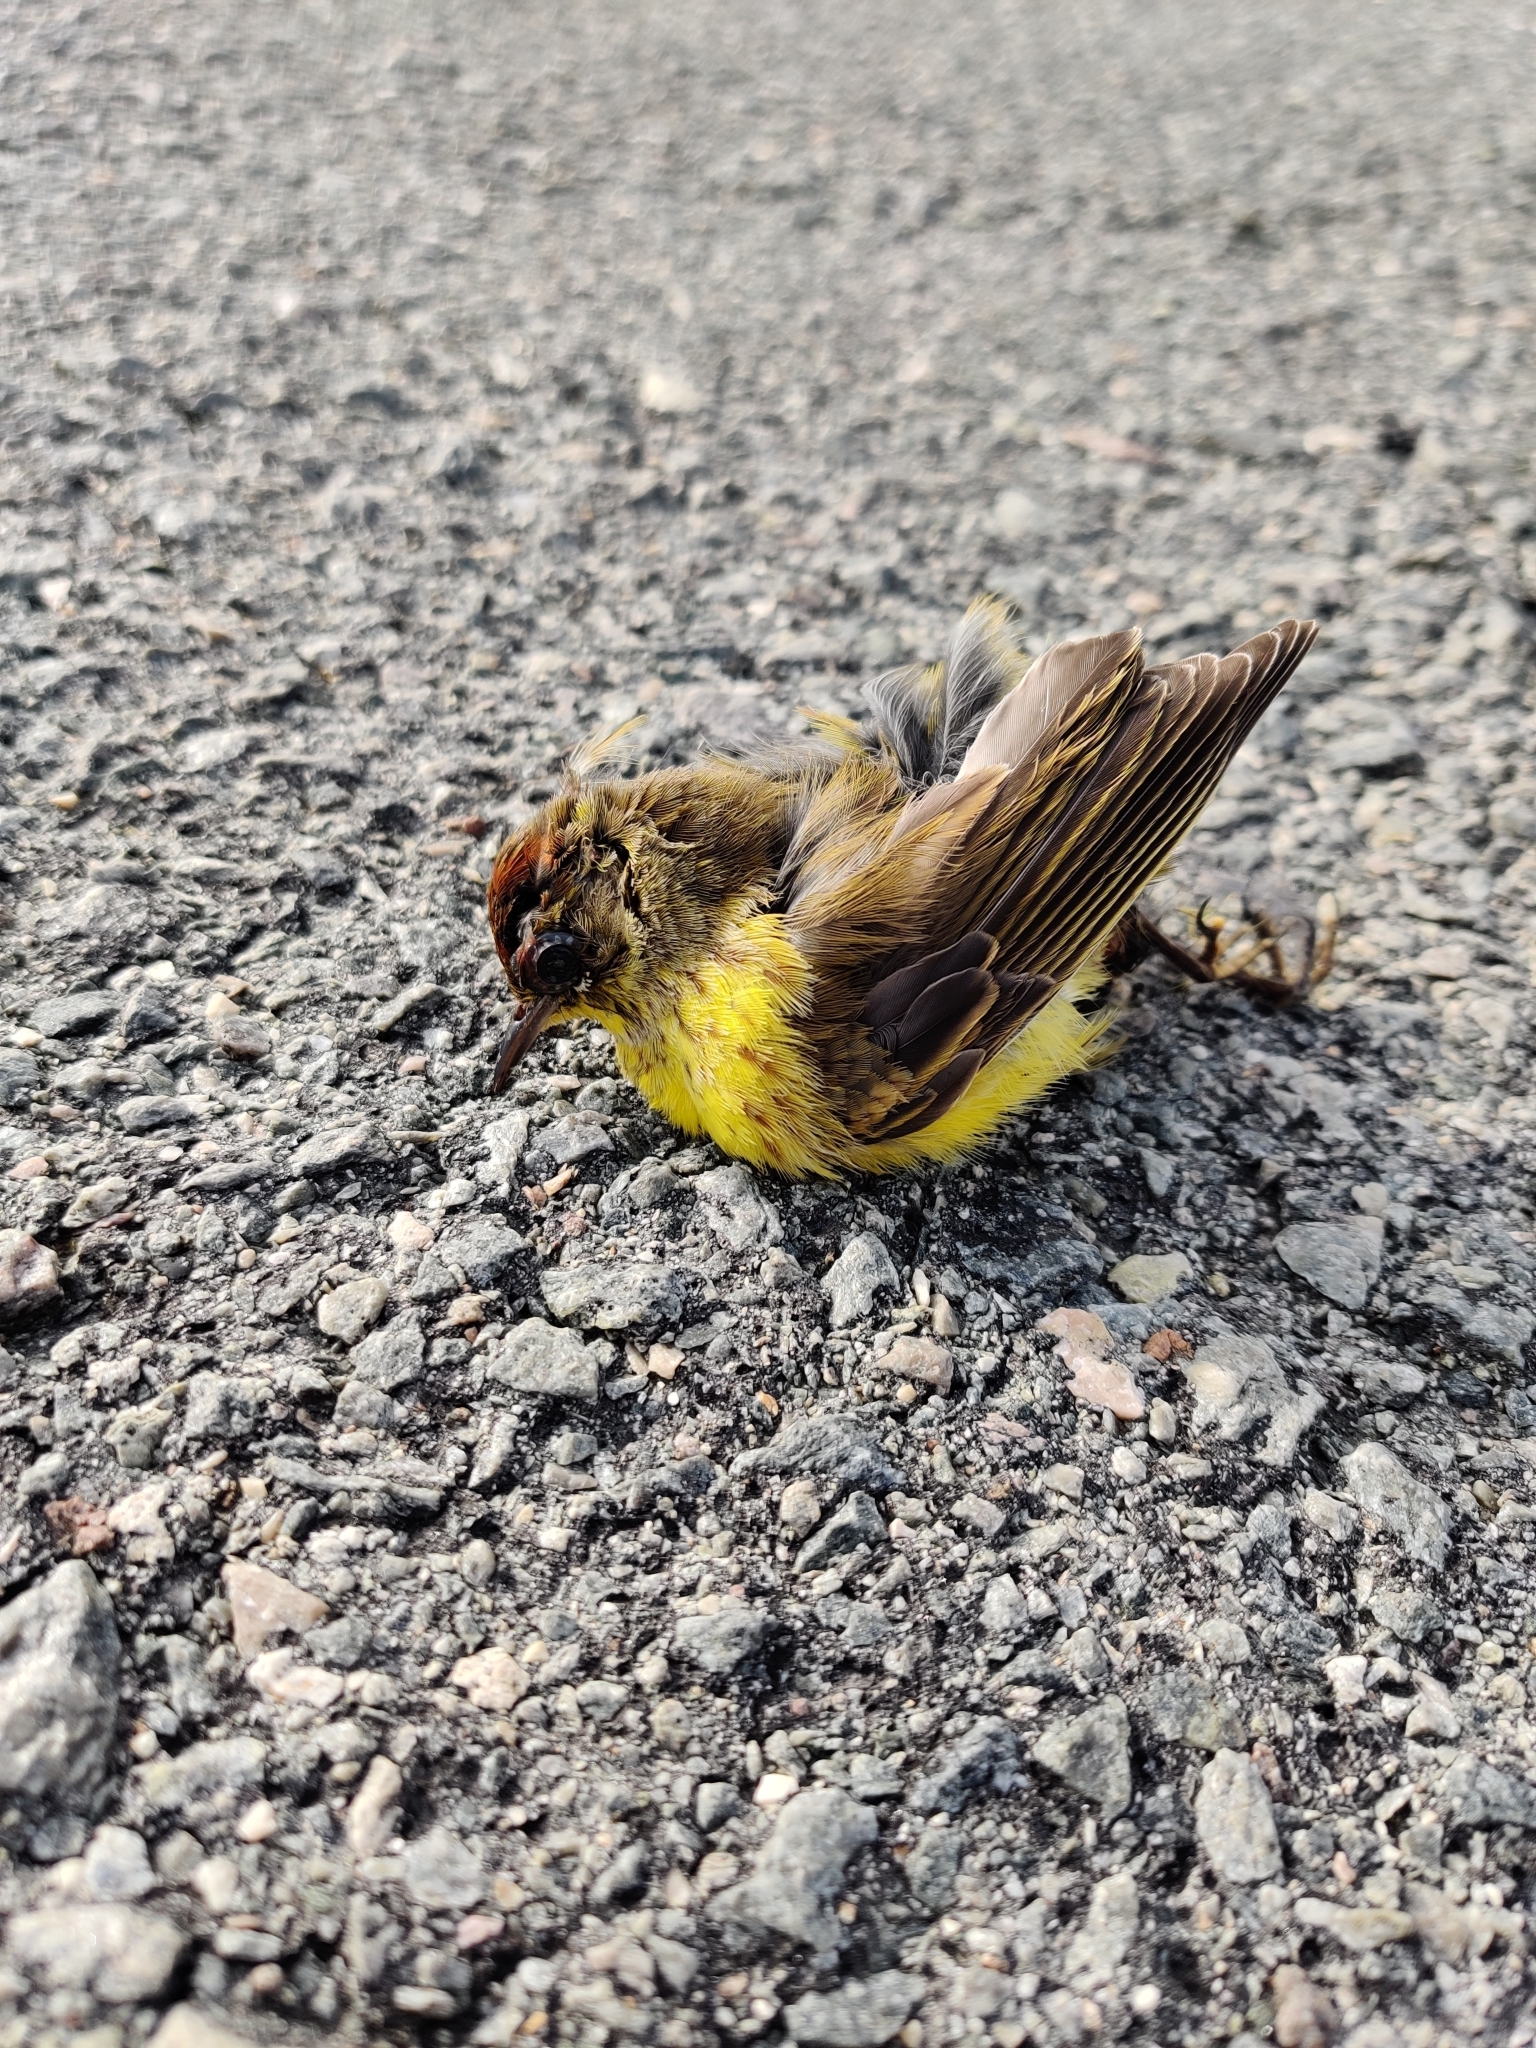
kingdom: Animalia
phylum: Chordata
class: Aves
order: Passeriformes
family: Parulidae
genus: Setophaga
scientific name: Setophaga palmarum
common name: Palm warbler
